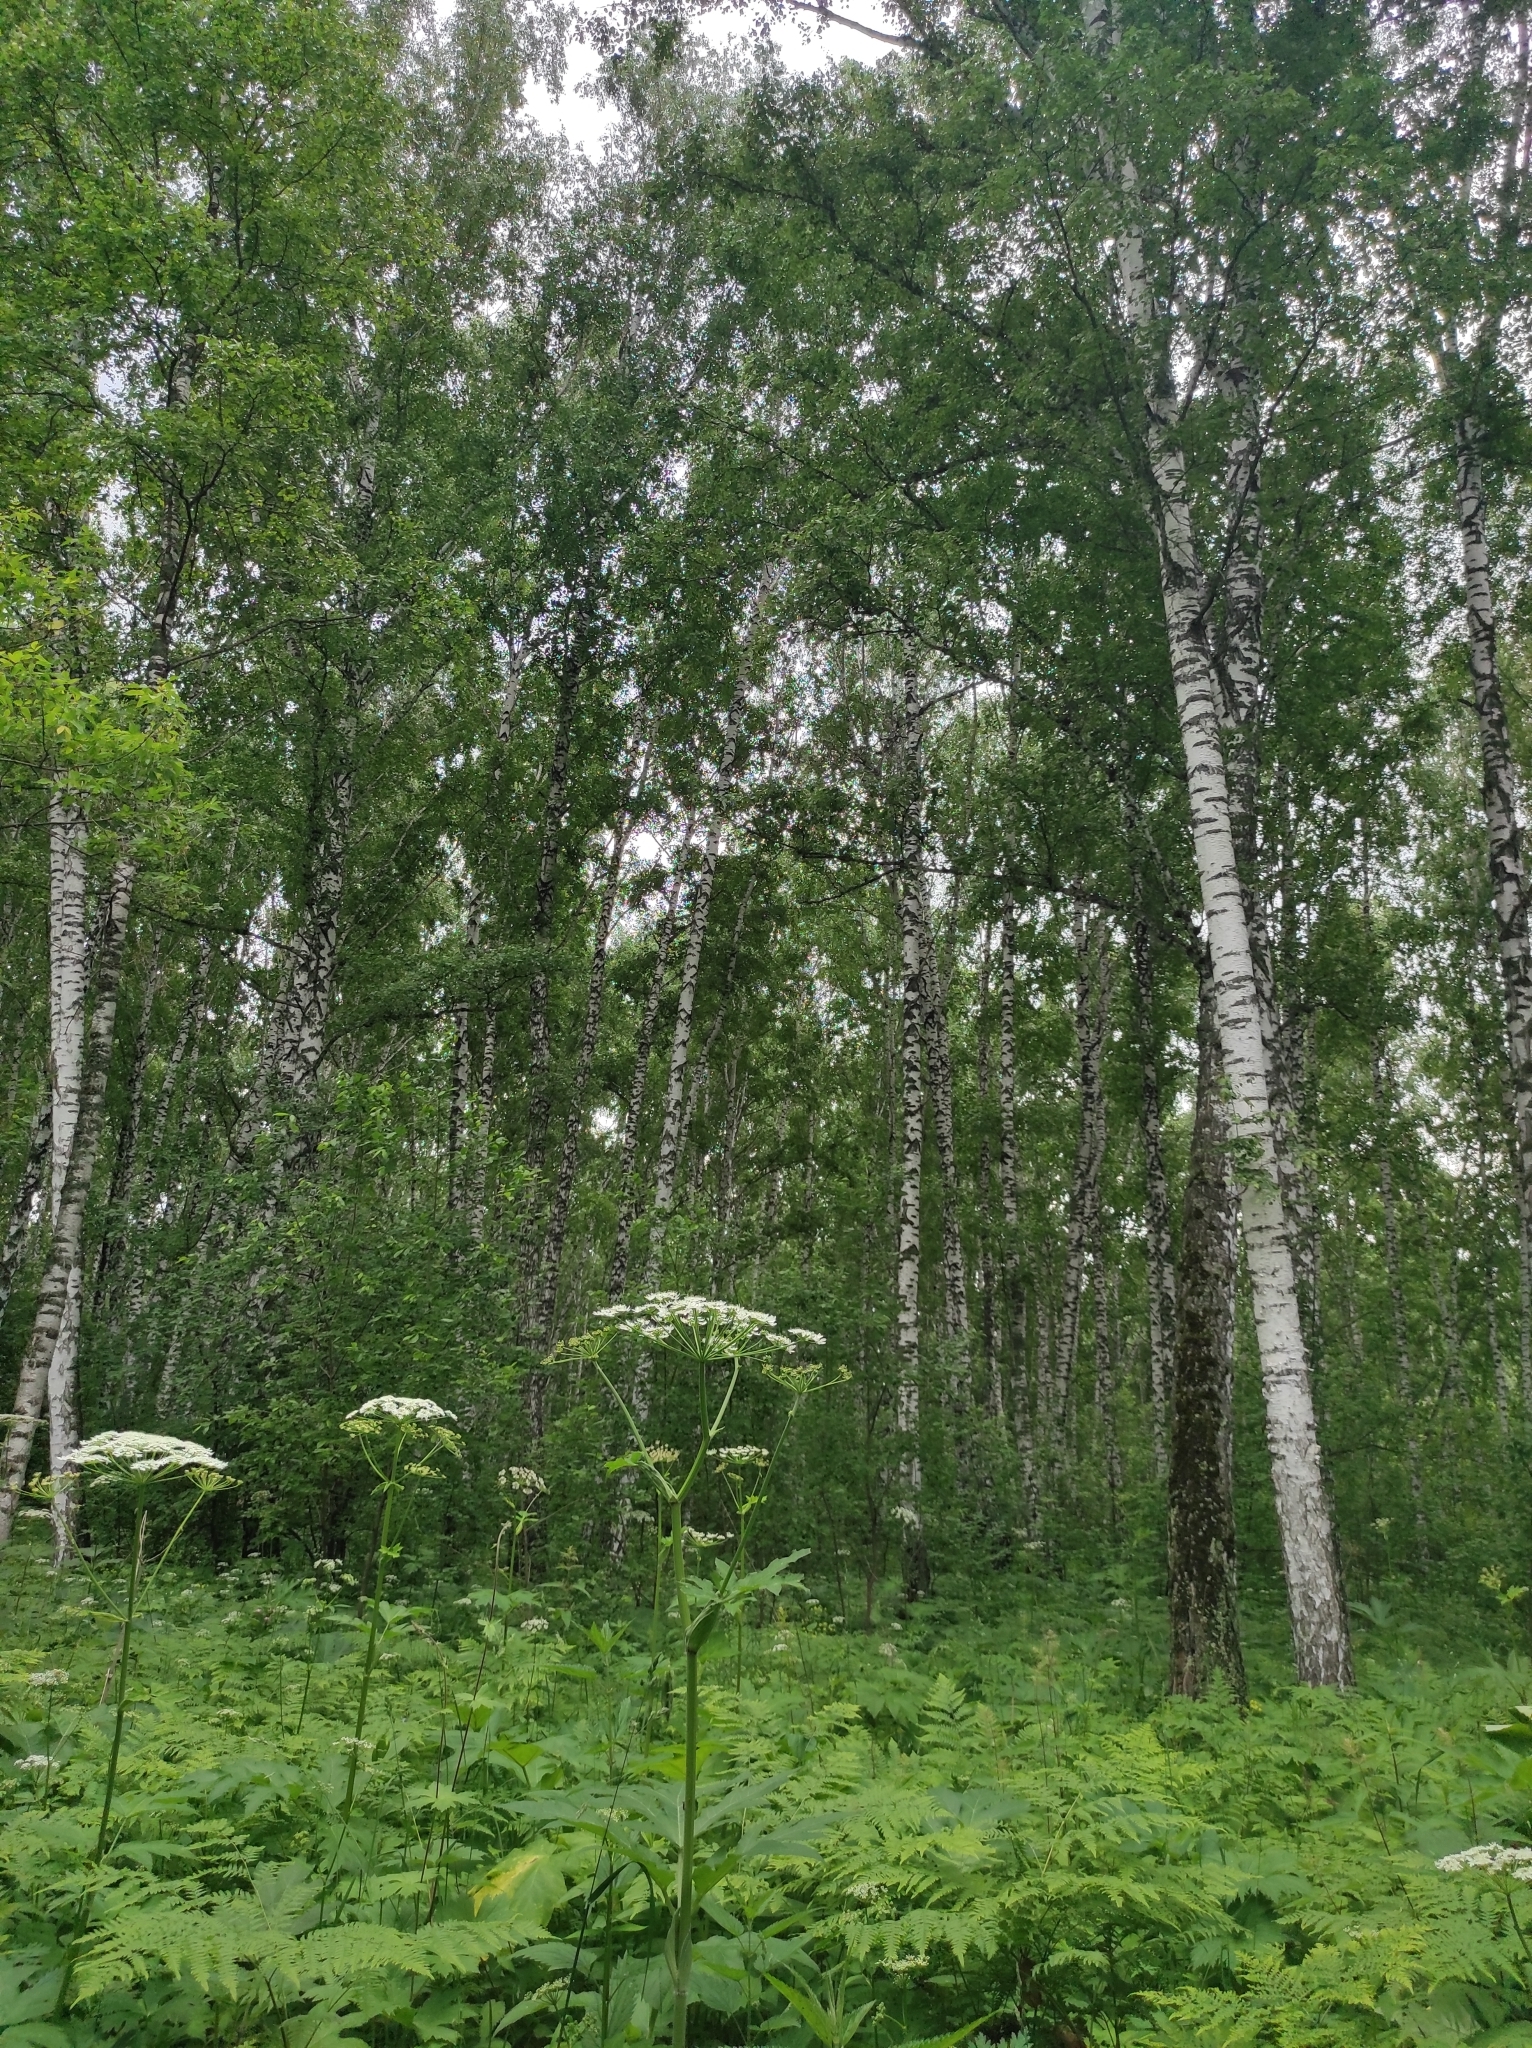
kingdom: Plantae
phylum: Tracheophyta
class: Magnoliopsida
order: Apiales
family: Apiaceae
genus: Heracleum
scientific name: Heracleum dissectum
